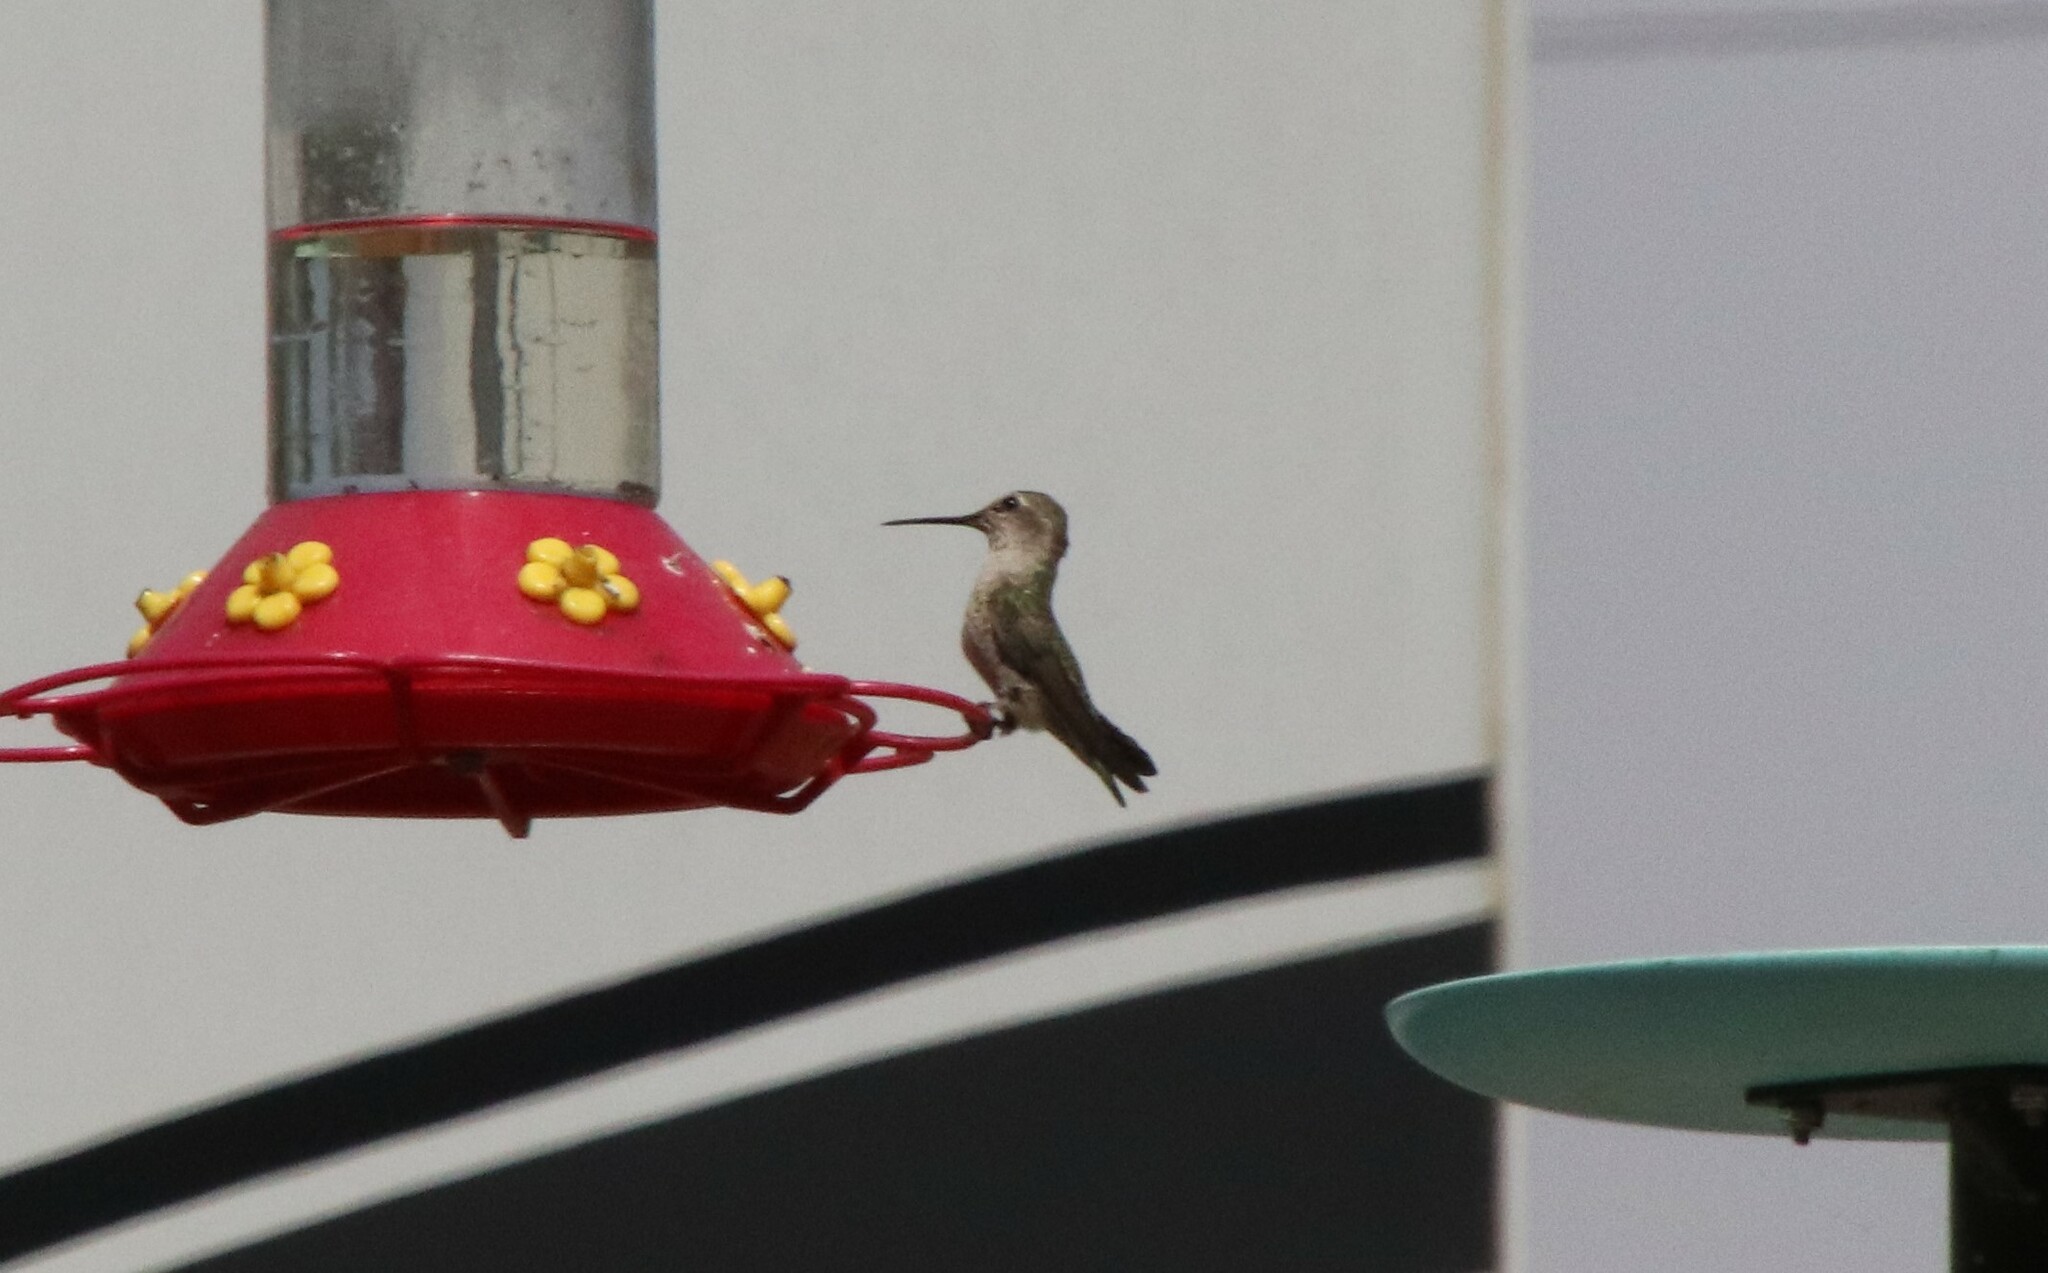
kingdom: Animalia
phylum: Chordata
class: Aves
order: Apodiformes
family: Trochilidae
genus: Calypte
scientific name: Calypte anna
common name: Anna's hummingbird
